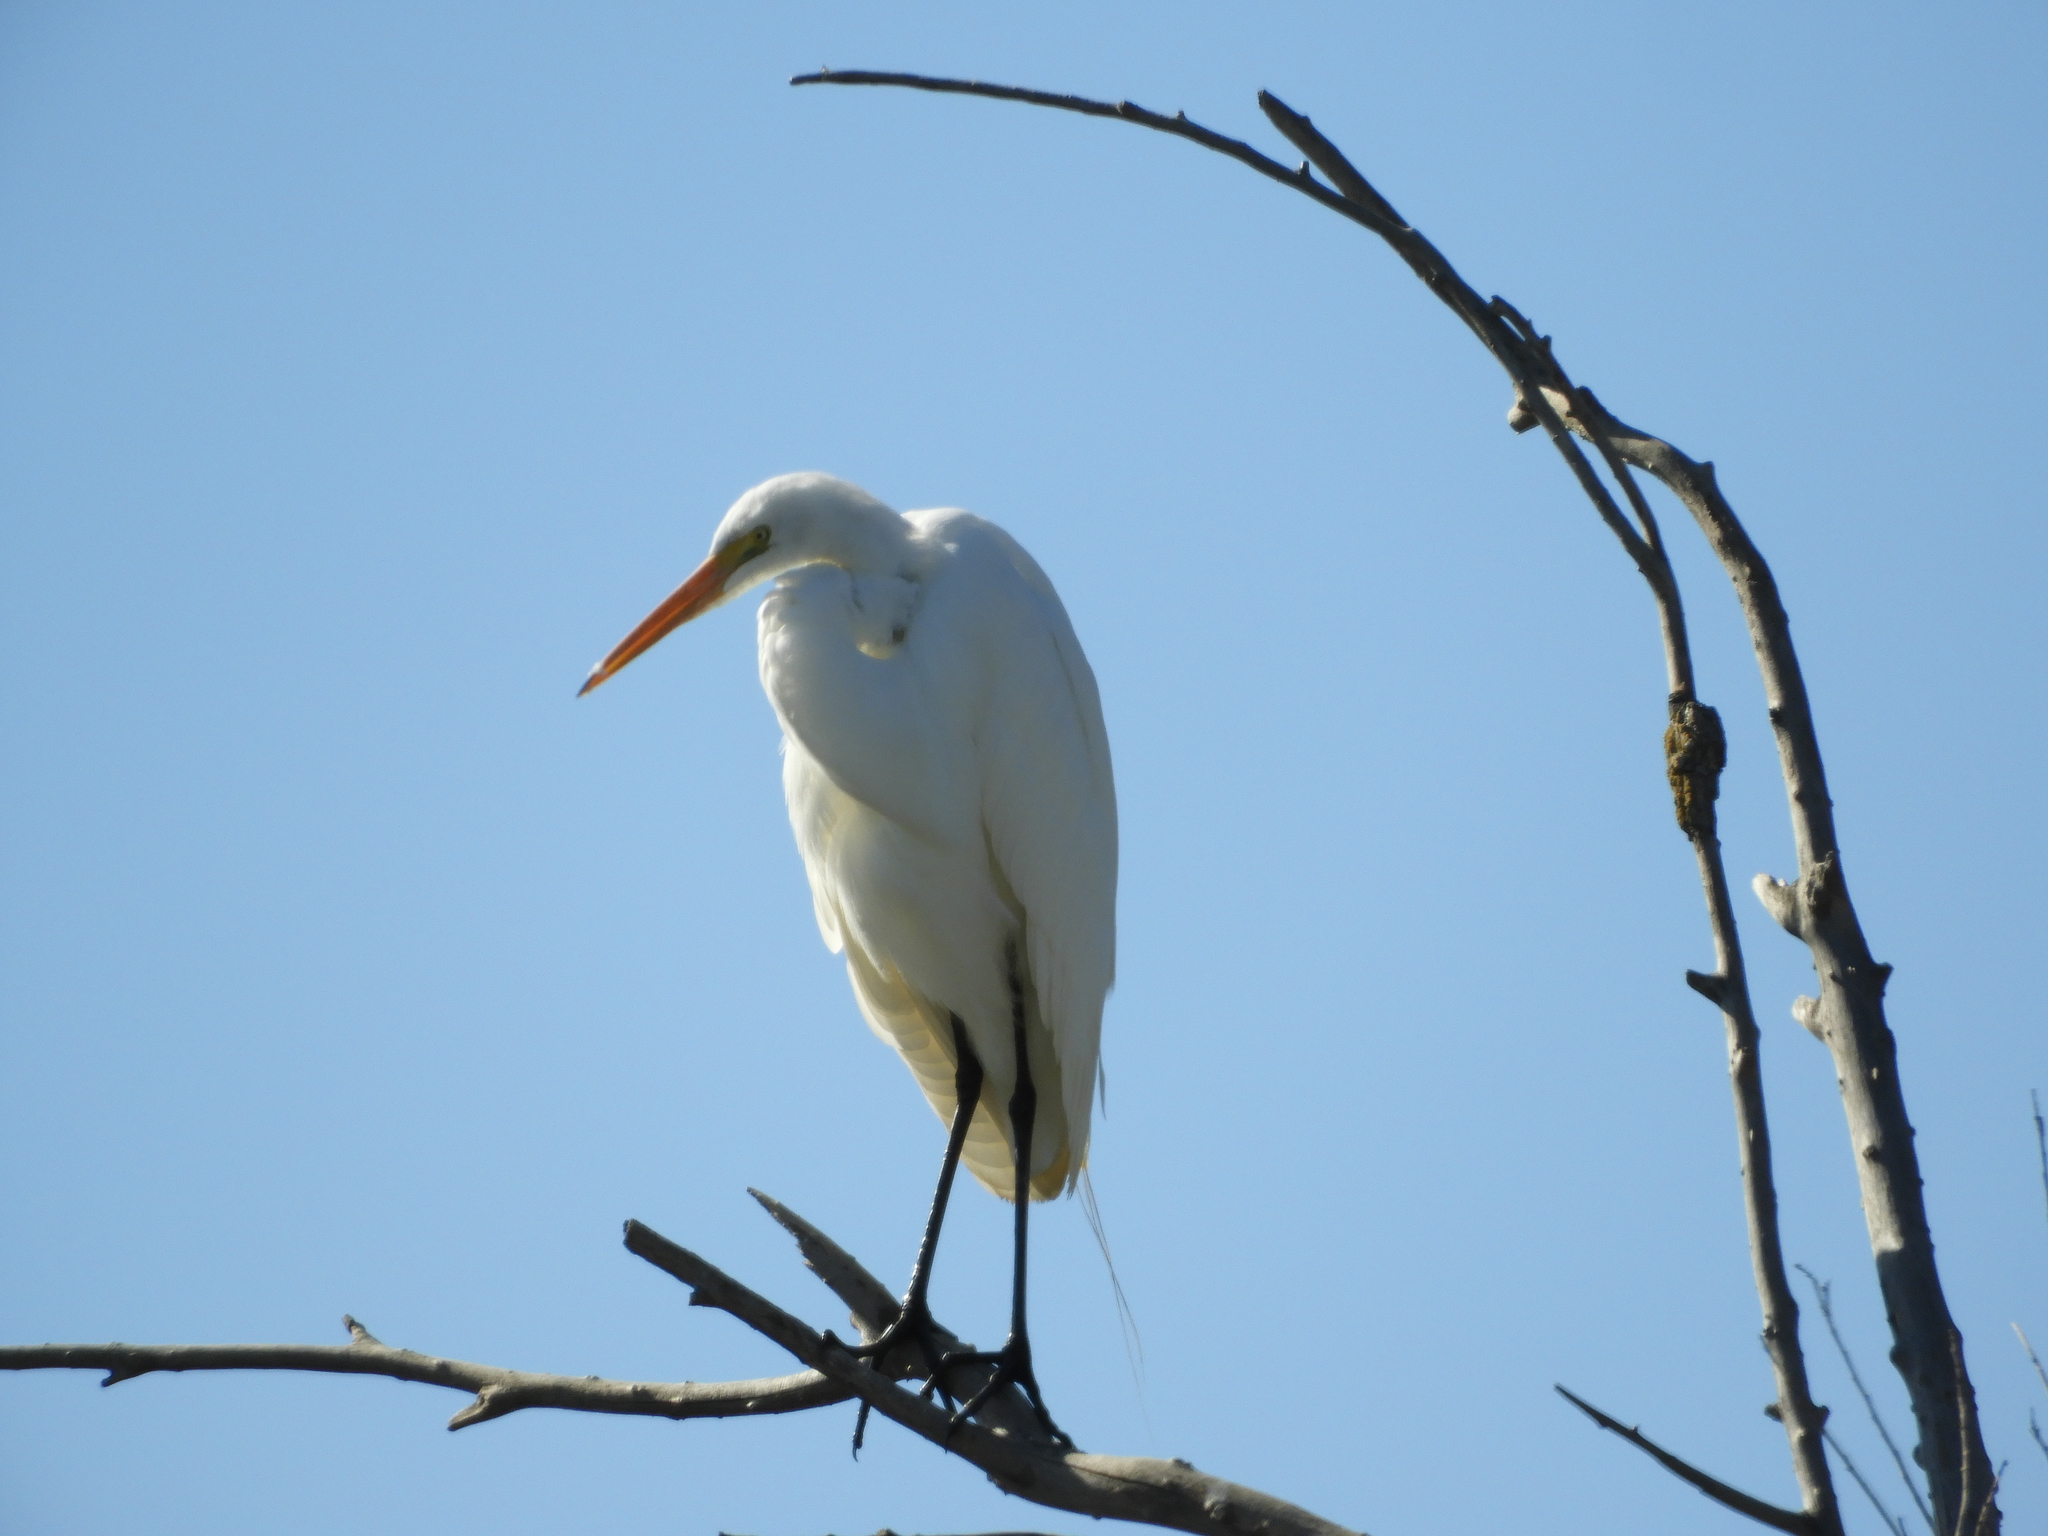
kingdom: Animalia
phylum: Chordata
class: Aves
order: Pelecaniformes
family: Ardeidae
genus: Ardea
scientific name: Ardea alba
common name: Great egret
